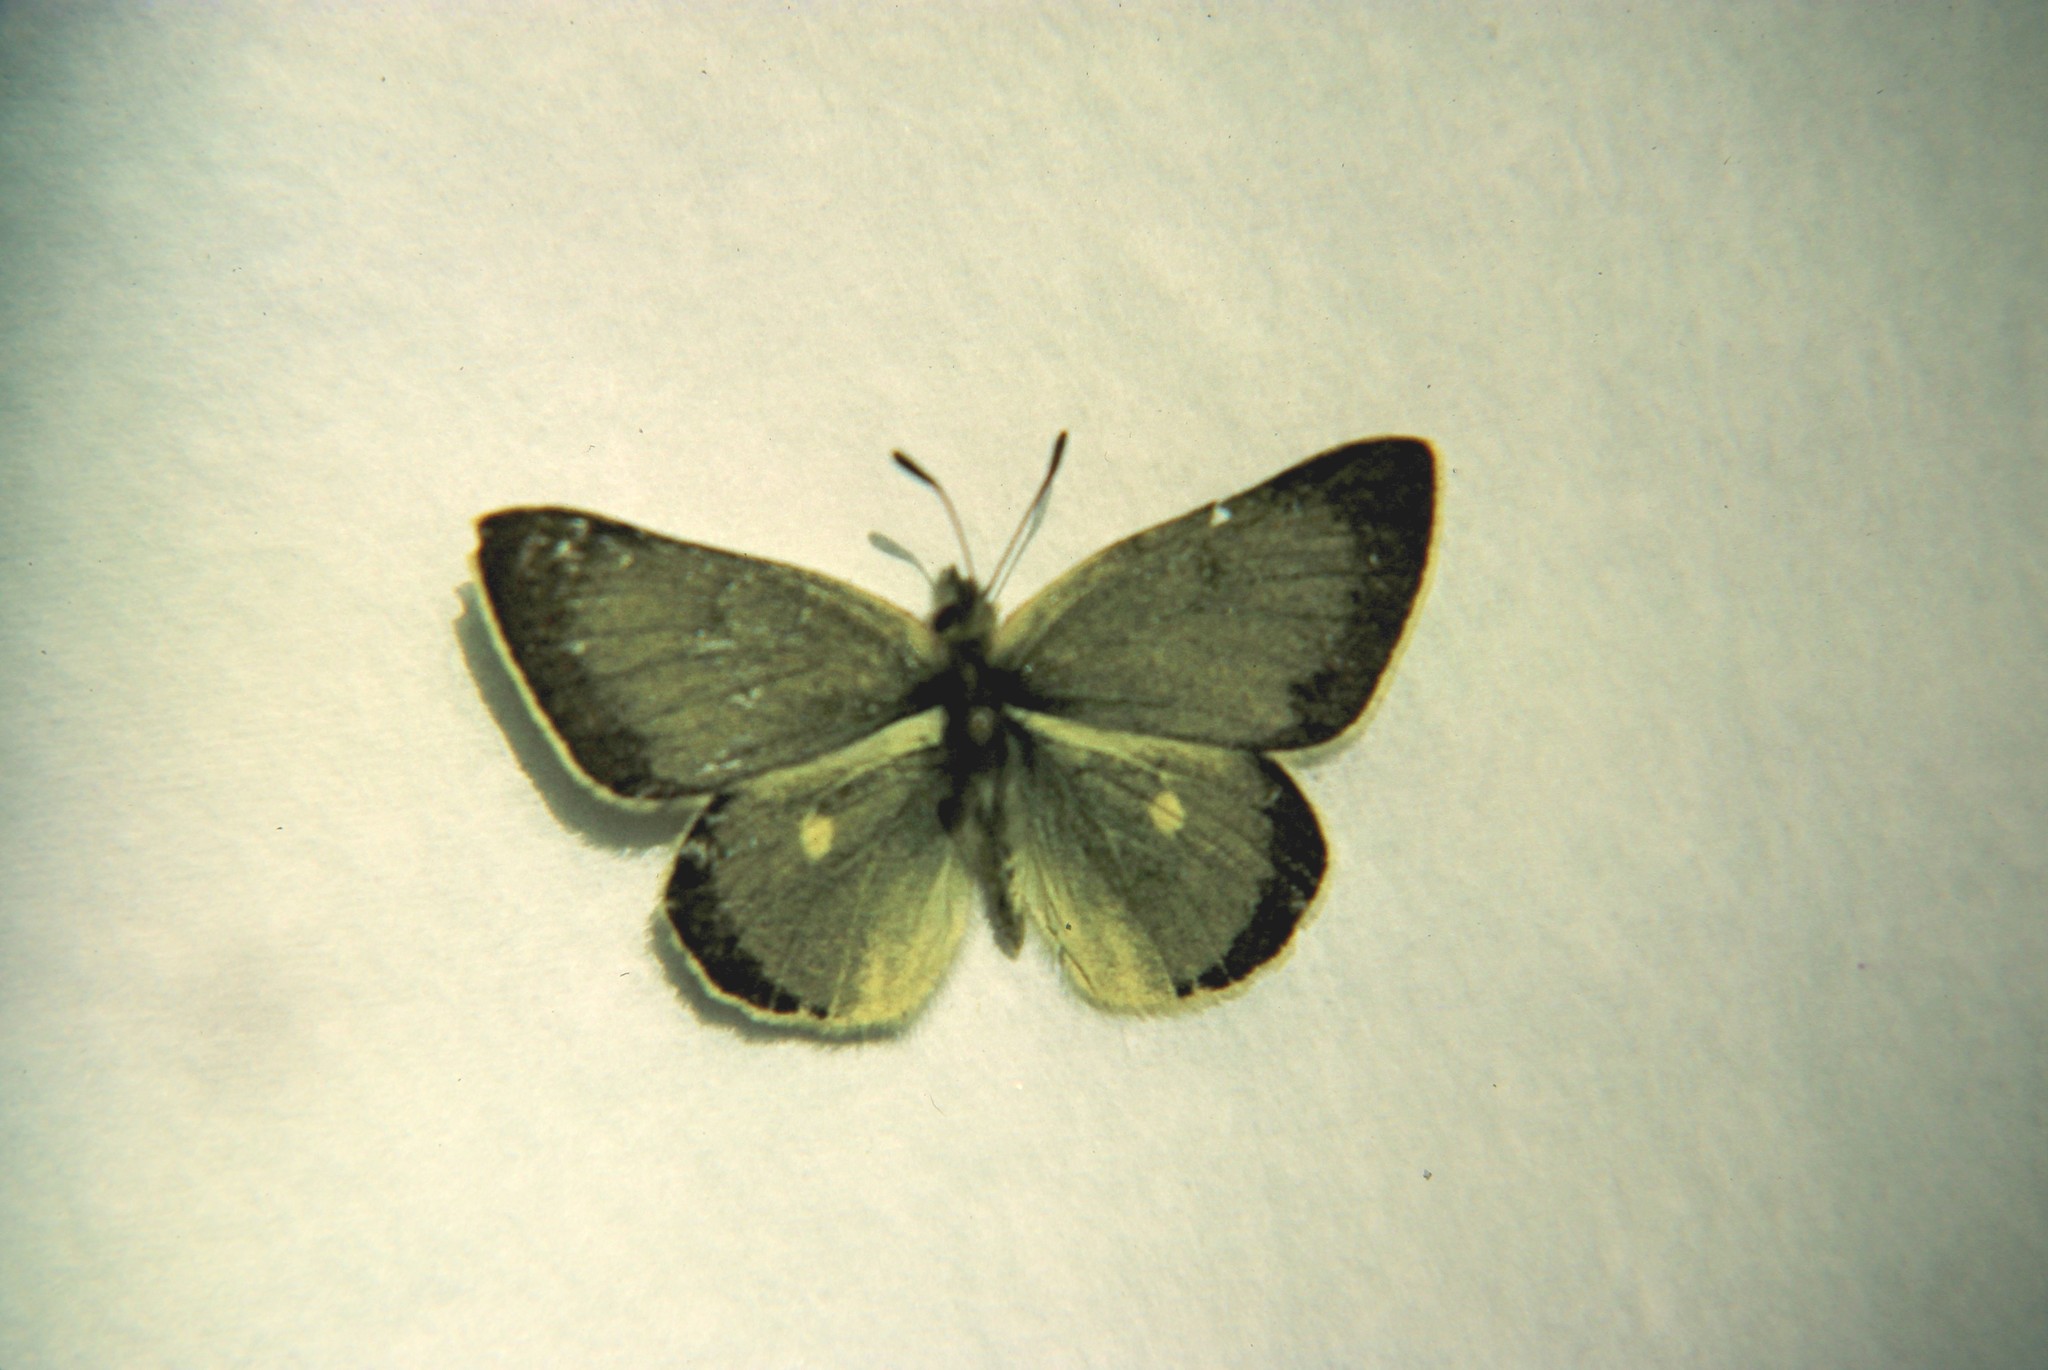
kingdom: Animalia
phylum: Arthropoda
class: Insecta
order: Lepidoptera
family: Pieridae
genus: Colias
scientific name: Colias behrii
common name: Behr's sulphur
